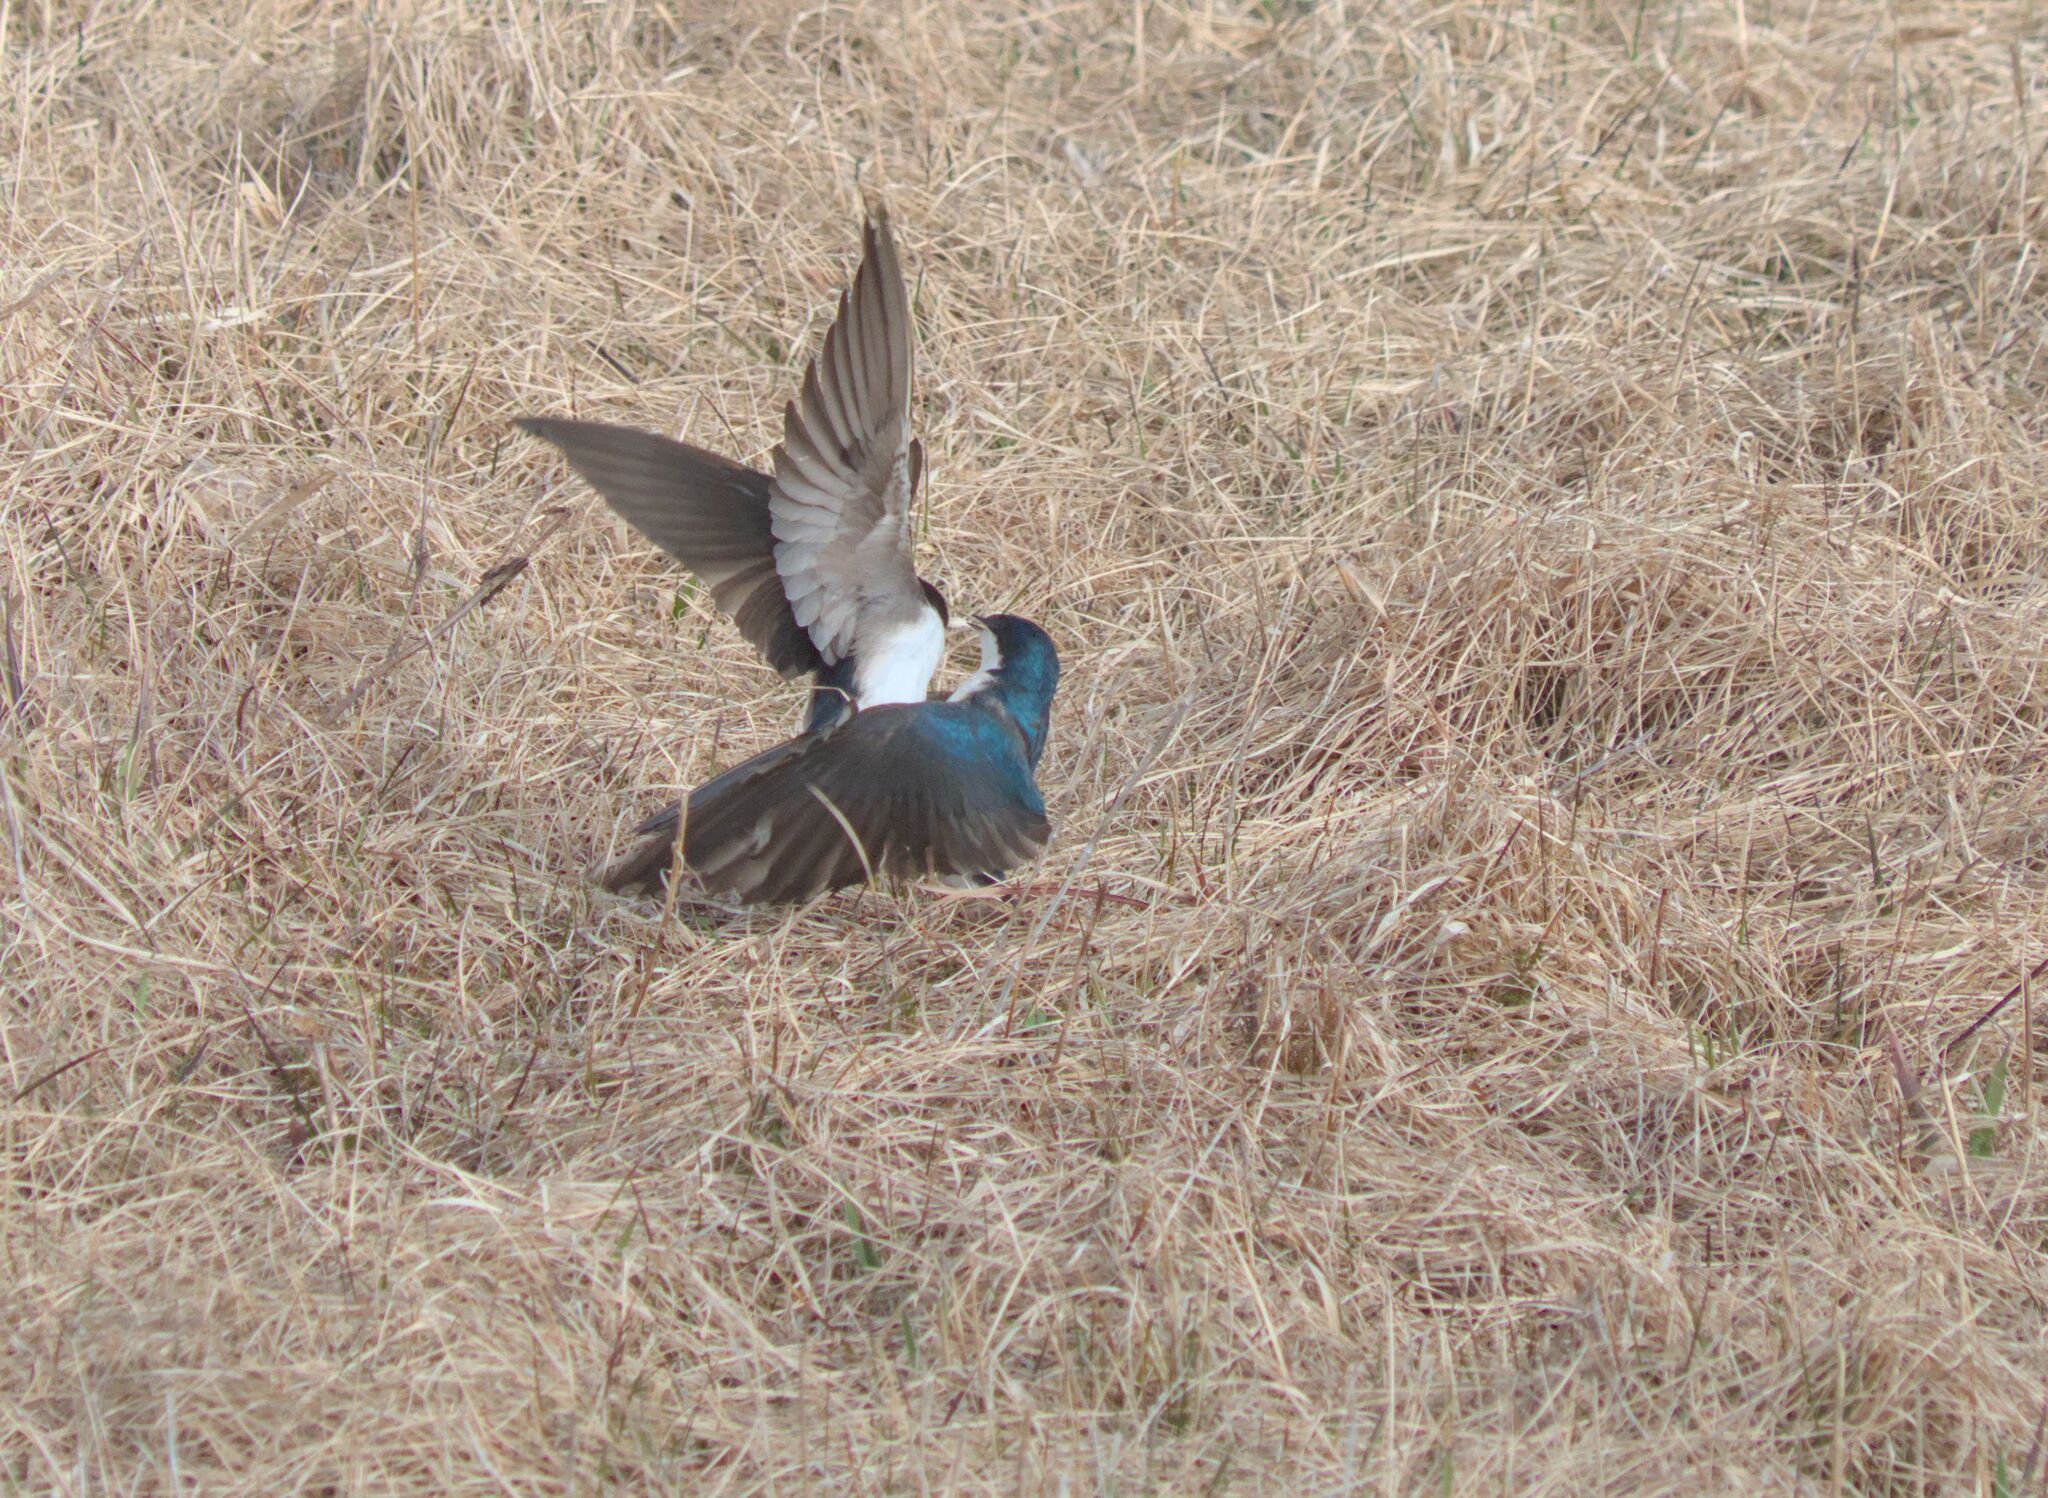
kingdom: Animalia
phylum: Chordata
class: Aves
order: Passeriformes
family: Hirundinidae
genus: Tachycineta
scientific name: Tachycineta bicolor
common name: Tree swallow
